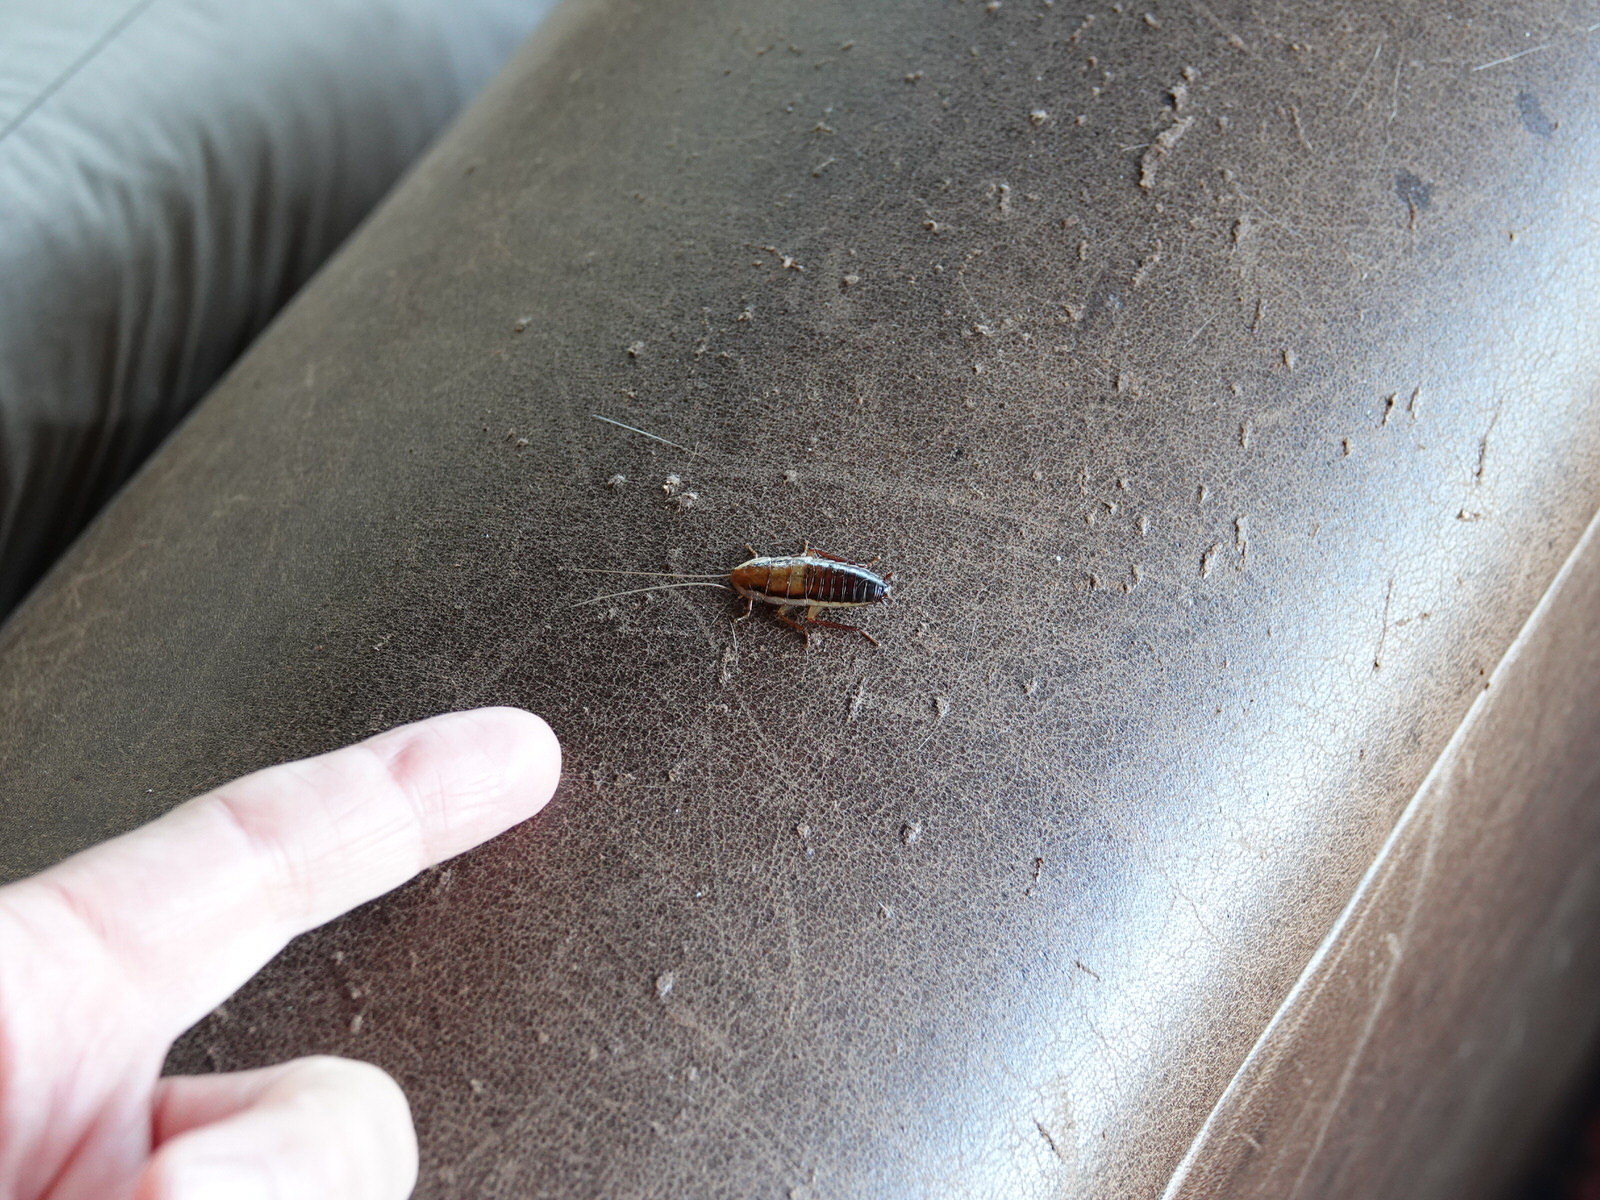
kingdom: Animalia
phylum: Arthropoda
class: Insecta
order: Blattodea
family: Blattidae
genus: Drymaplaneta
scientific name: Drymaplaneta heydeniana
